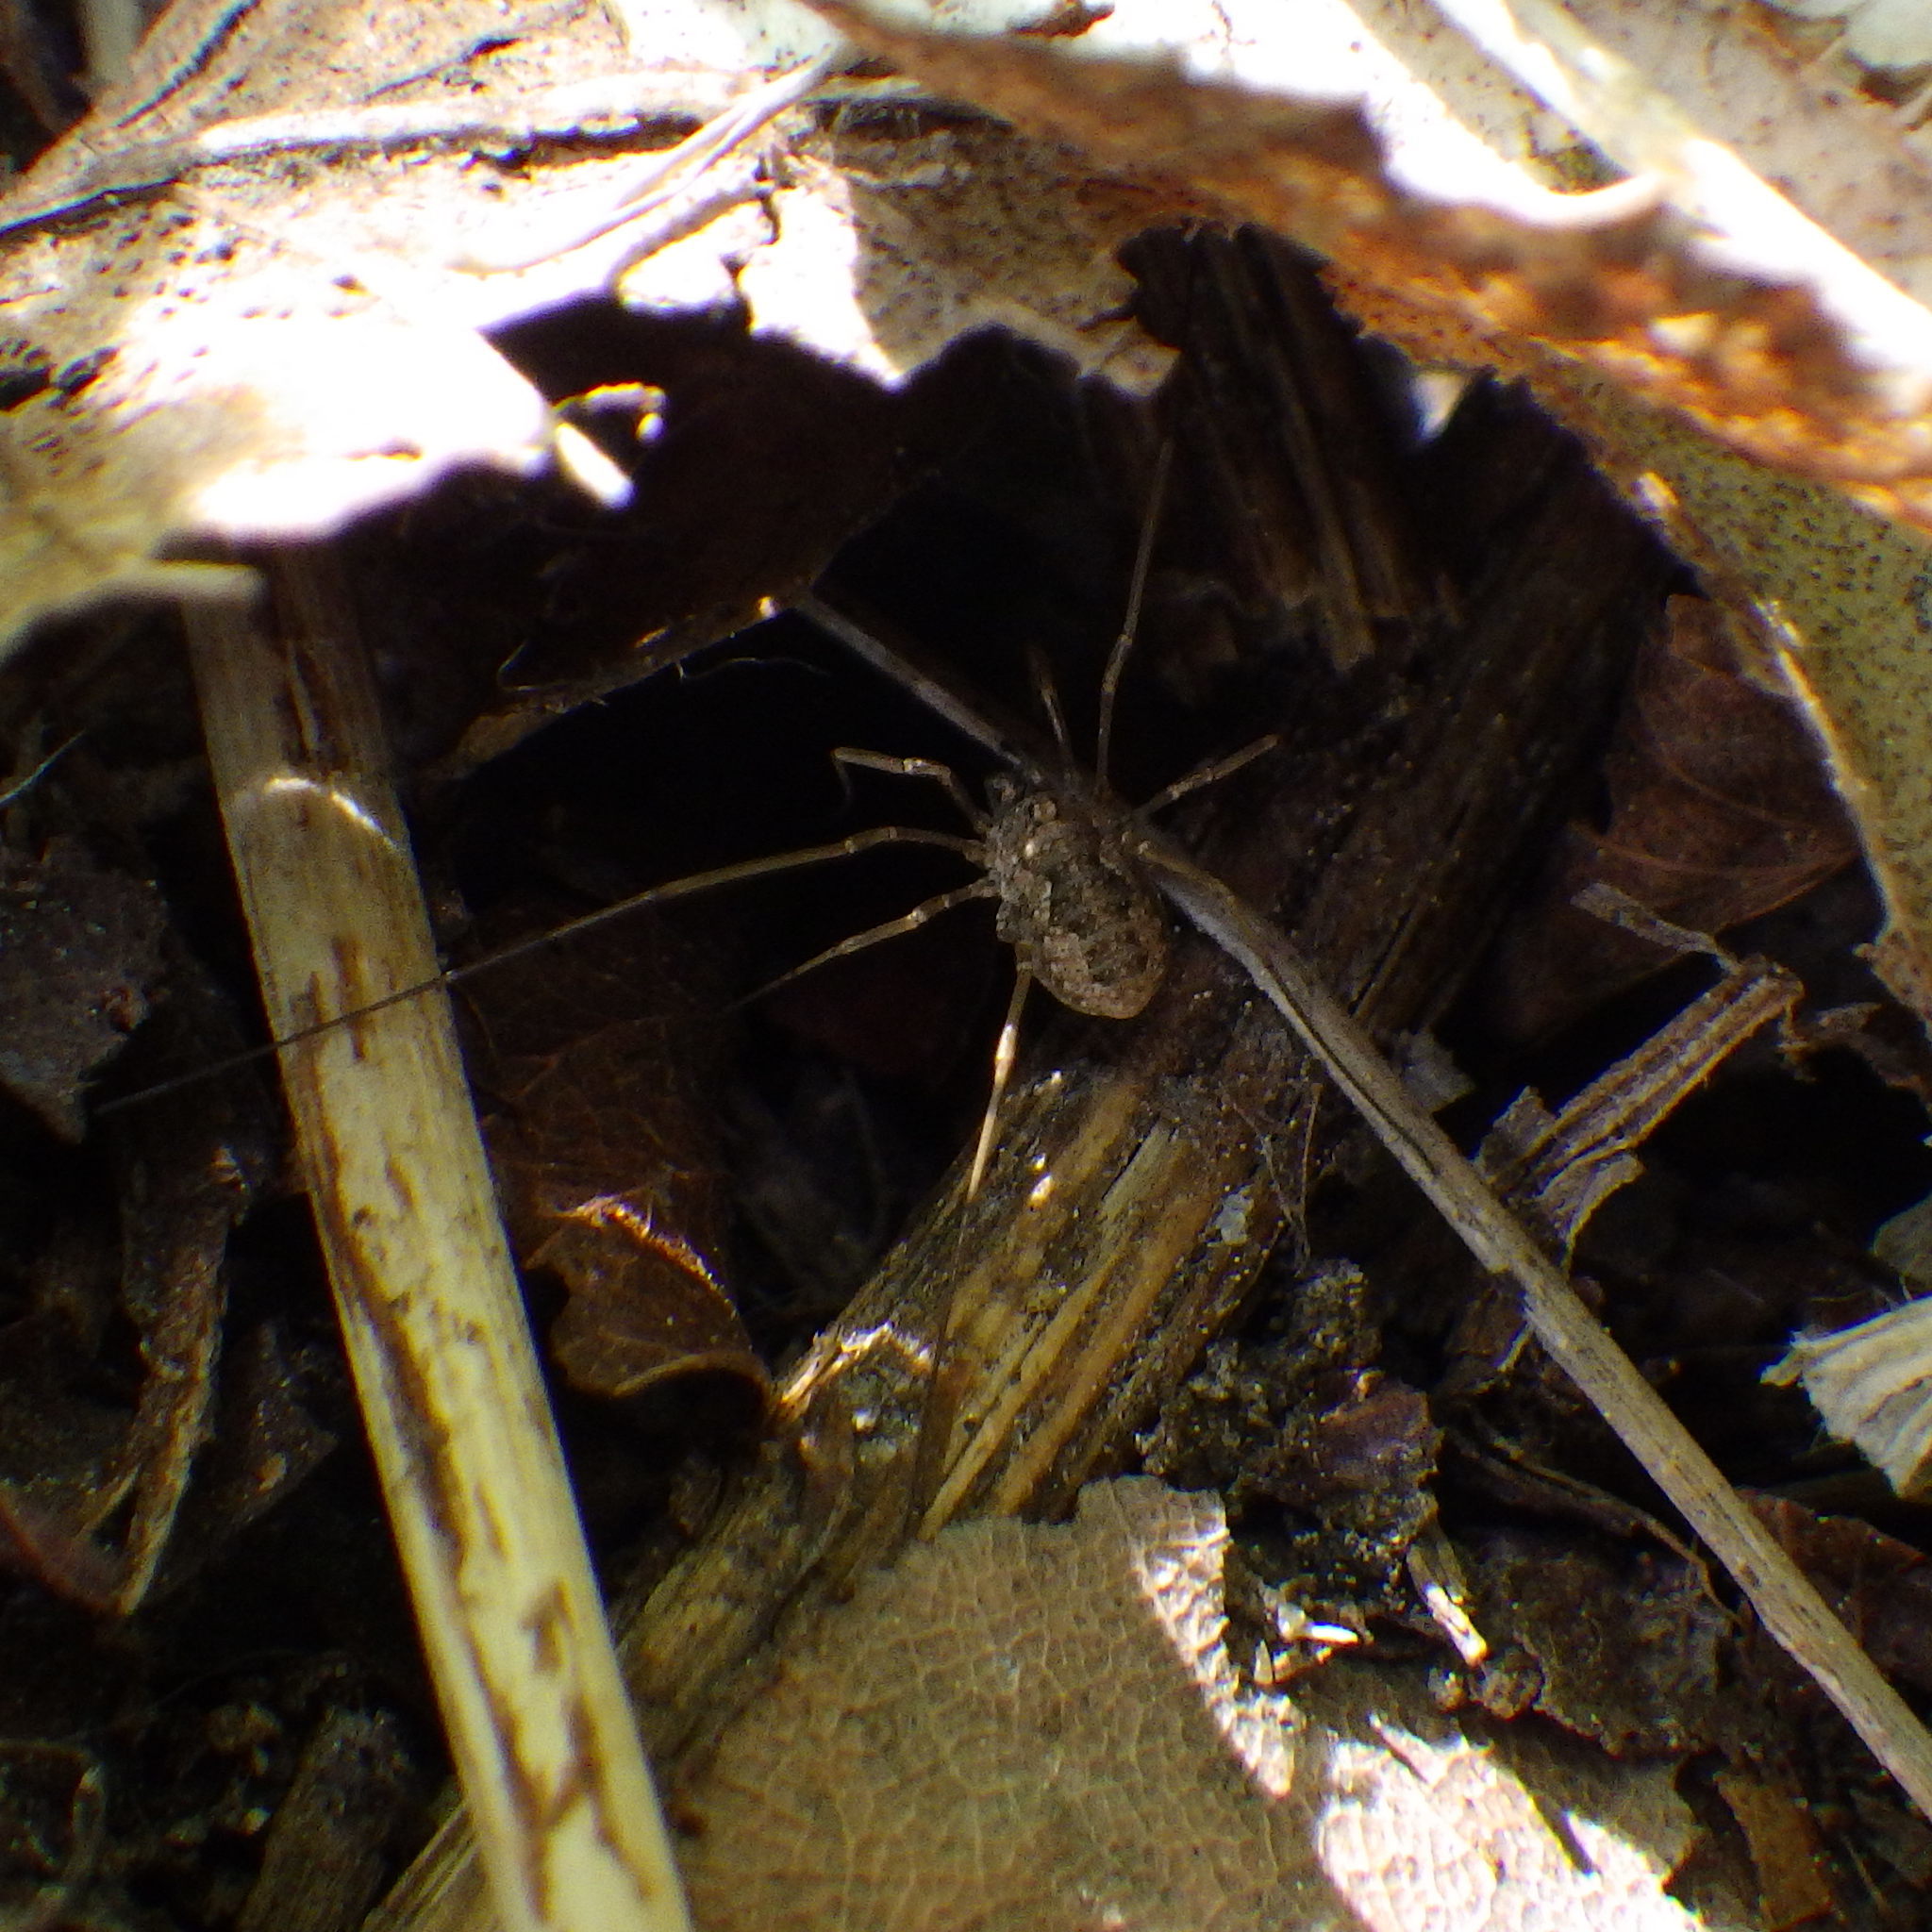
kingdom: Animalia
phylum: Arthropoda
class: Arachnida
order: Opiliones
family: Phalangiidae
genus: Phalangium
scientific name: Phalangium opilio
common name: Daddy longleg
